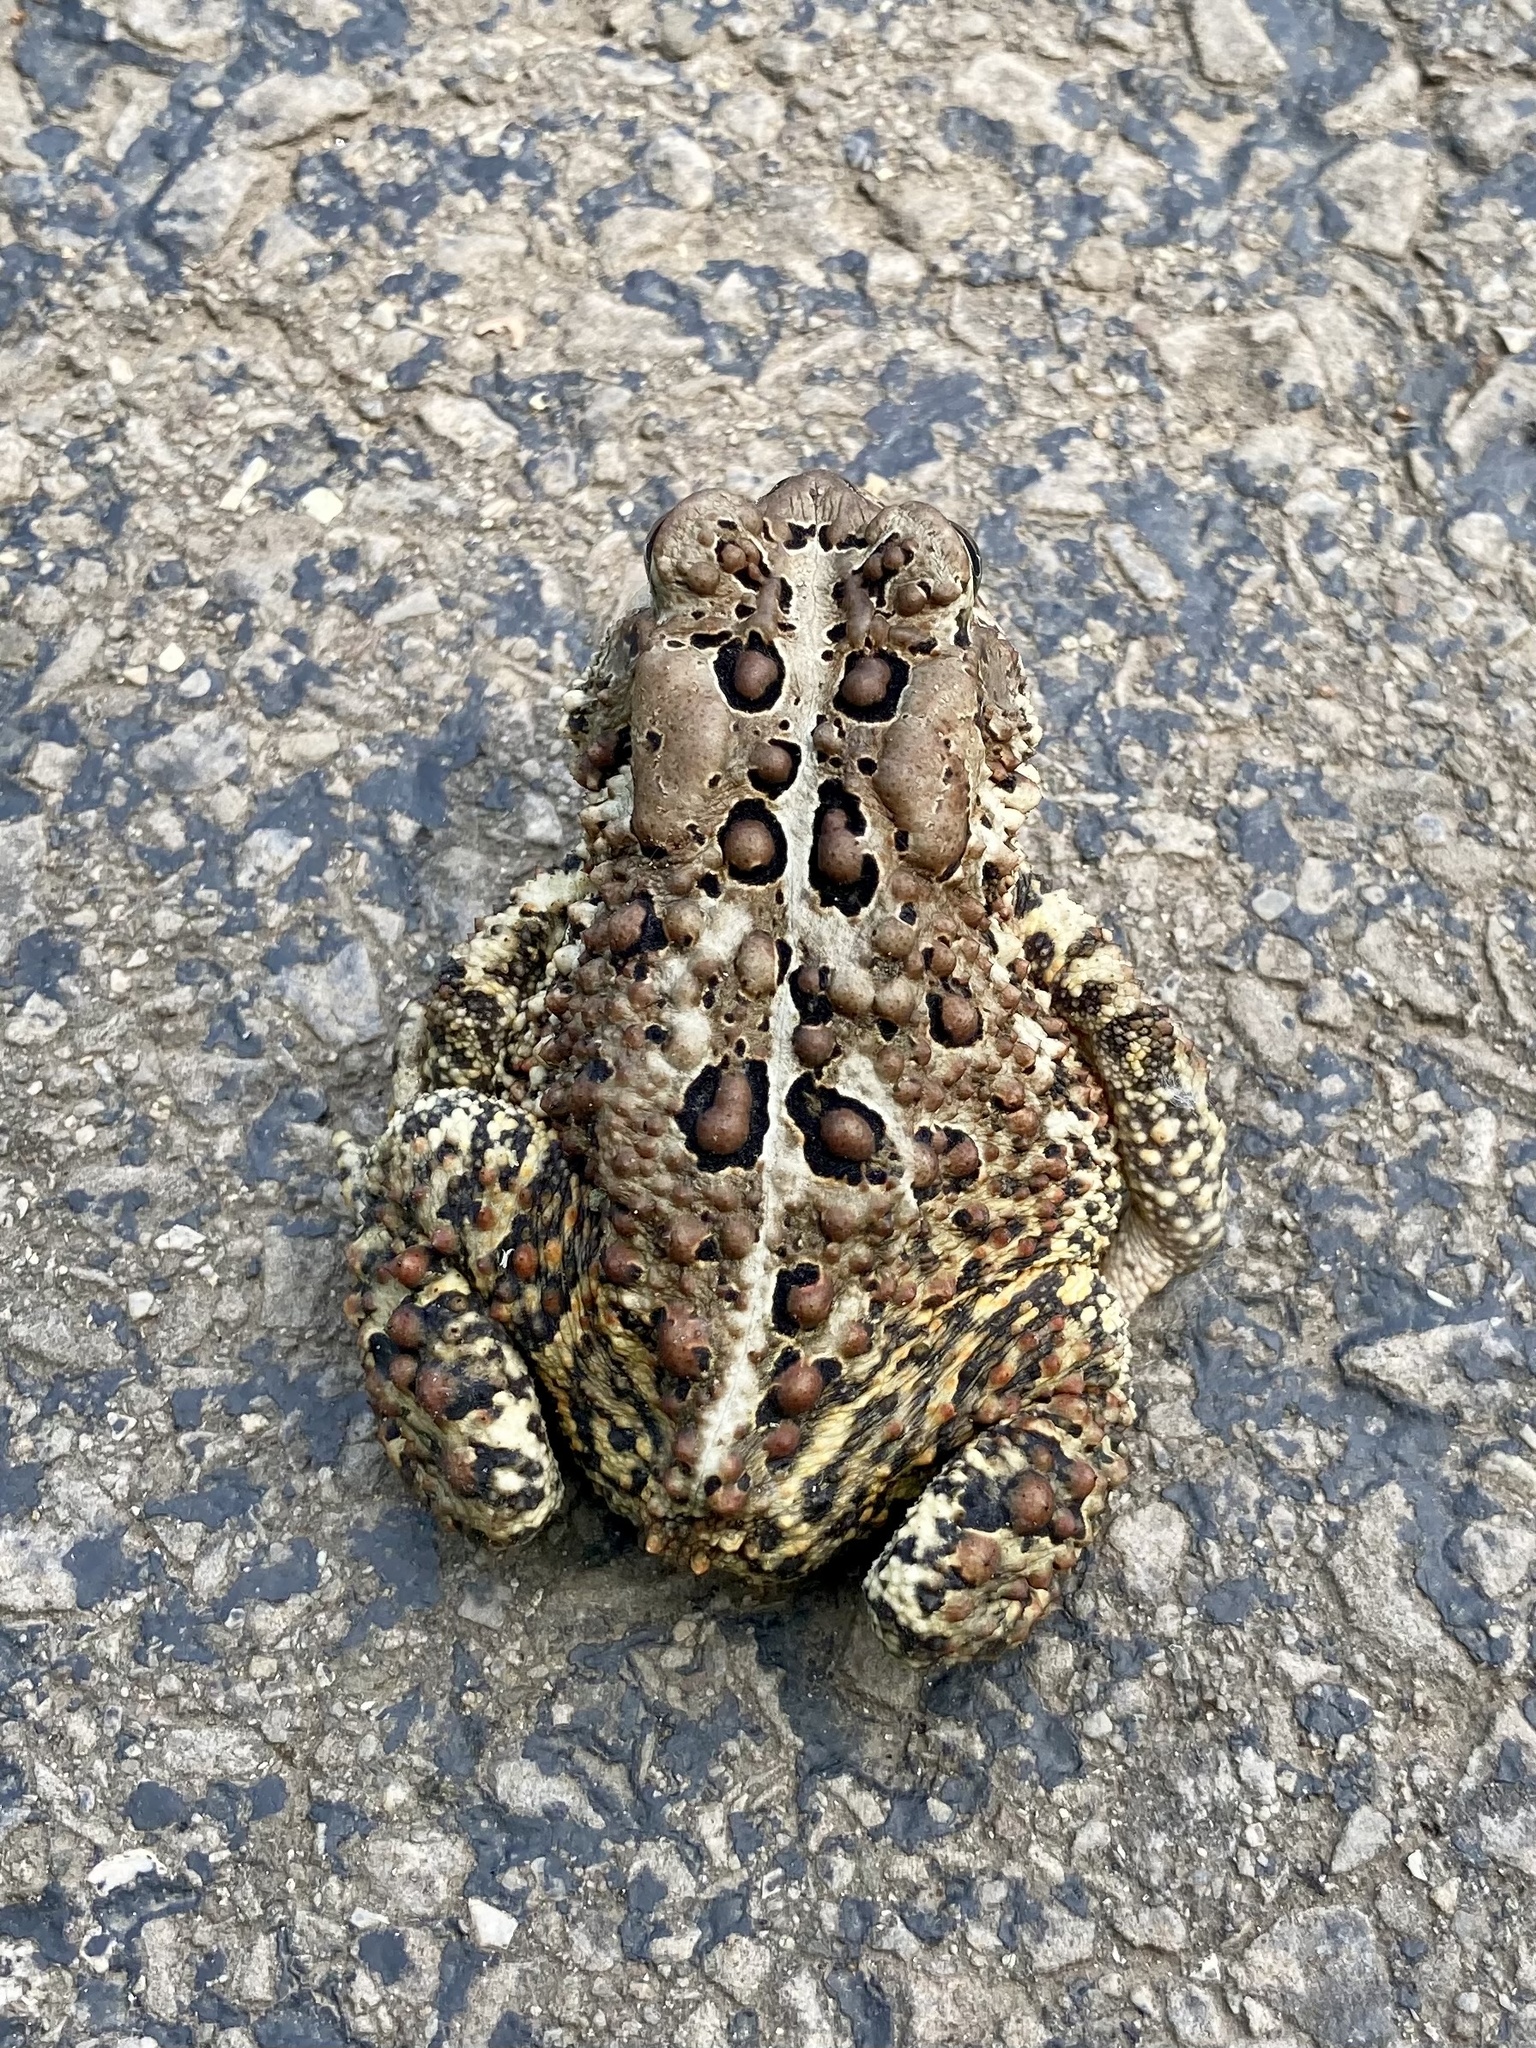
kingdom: Animalia
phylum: Chordata
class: Amphibia
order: Anura
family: Bufonidae
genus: Anaxyrus
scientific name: Anaxyrus americanus
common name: American toad
